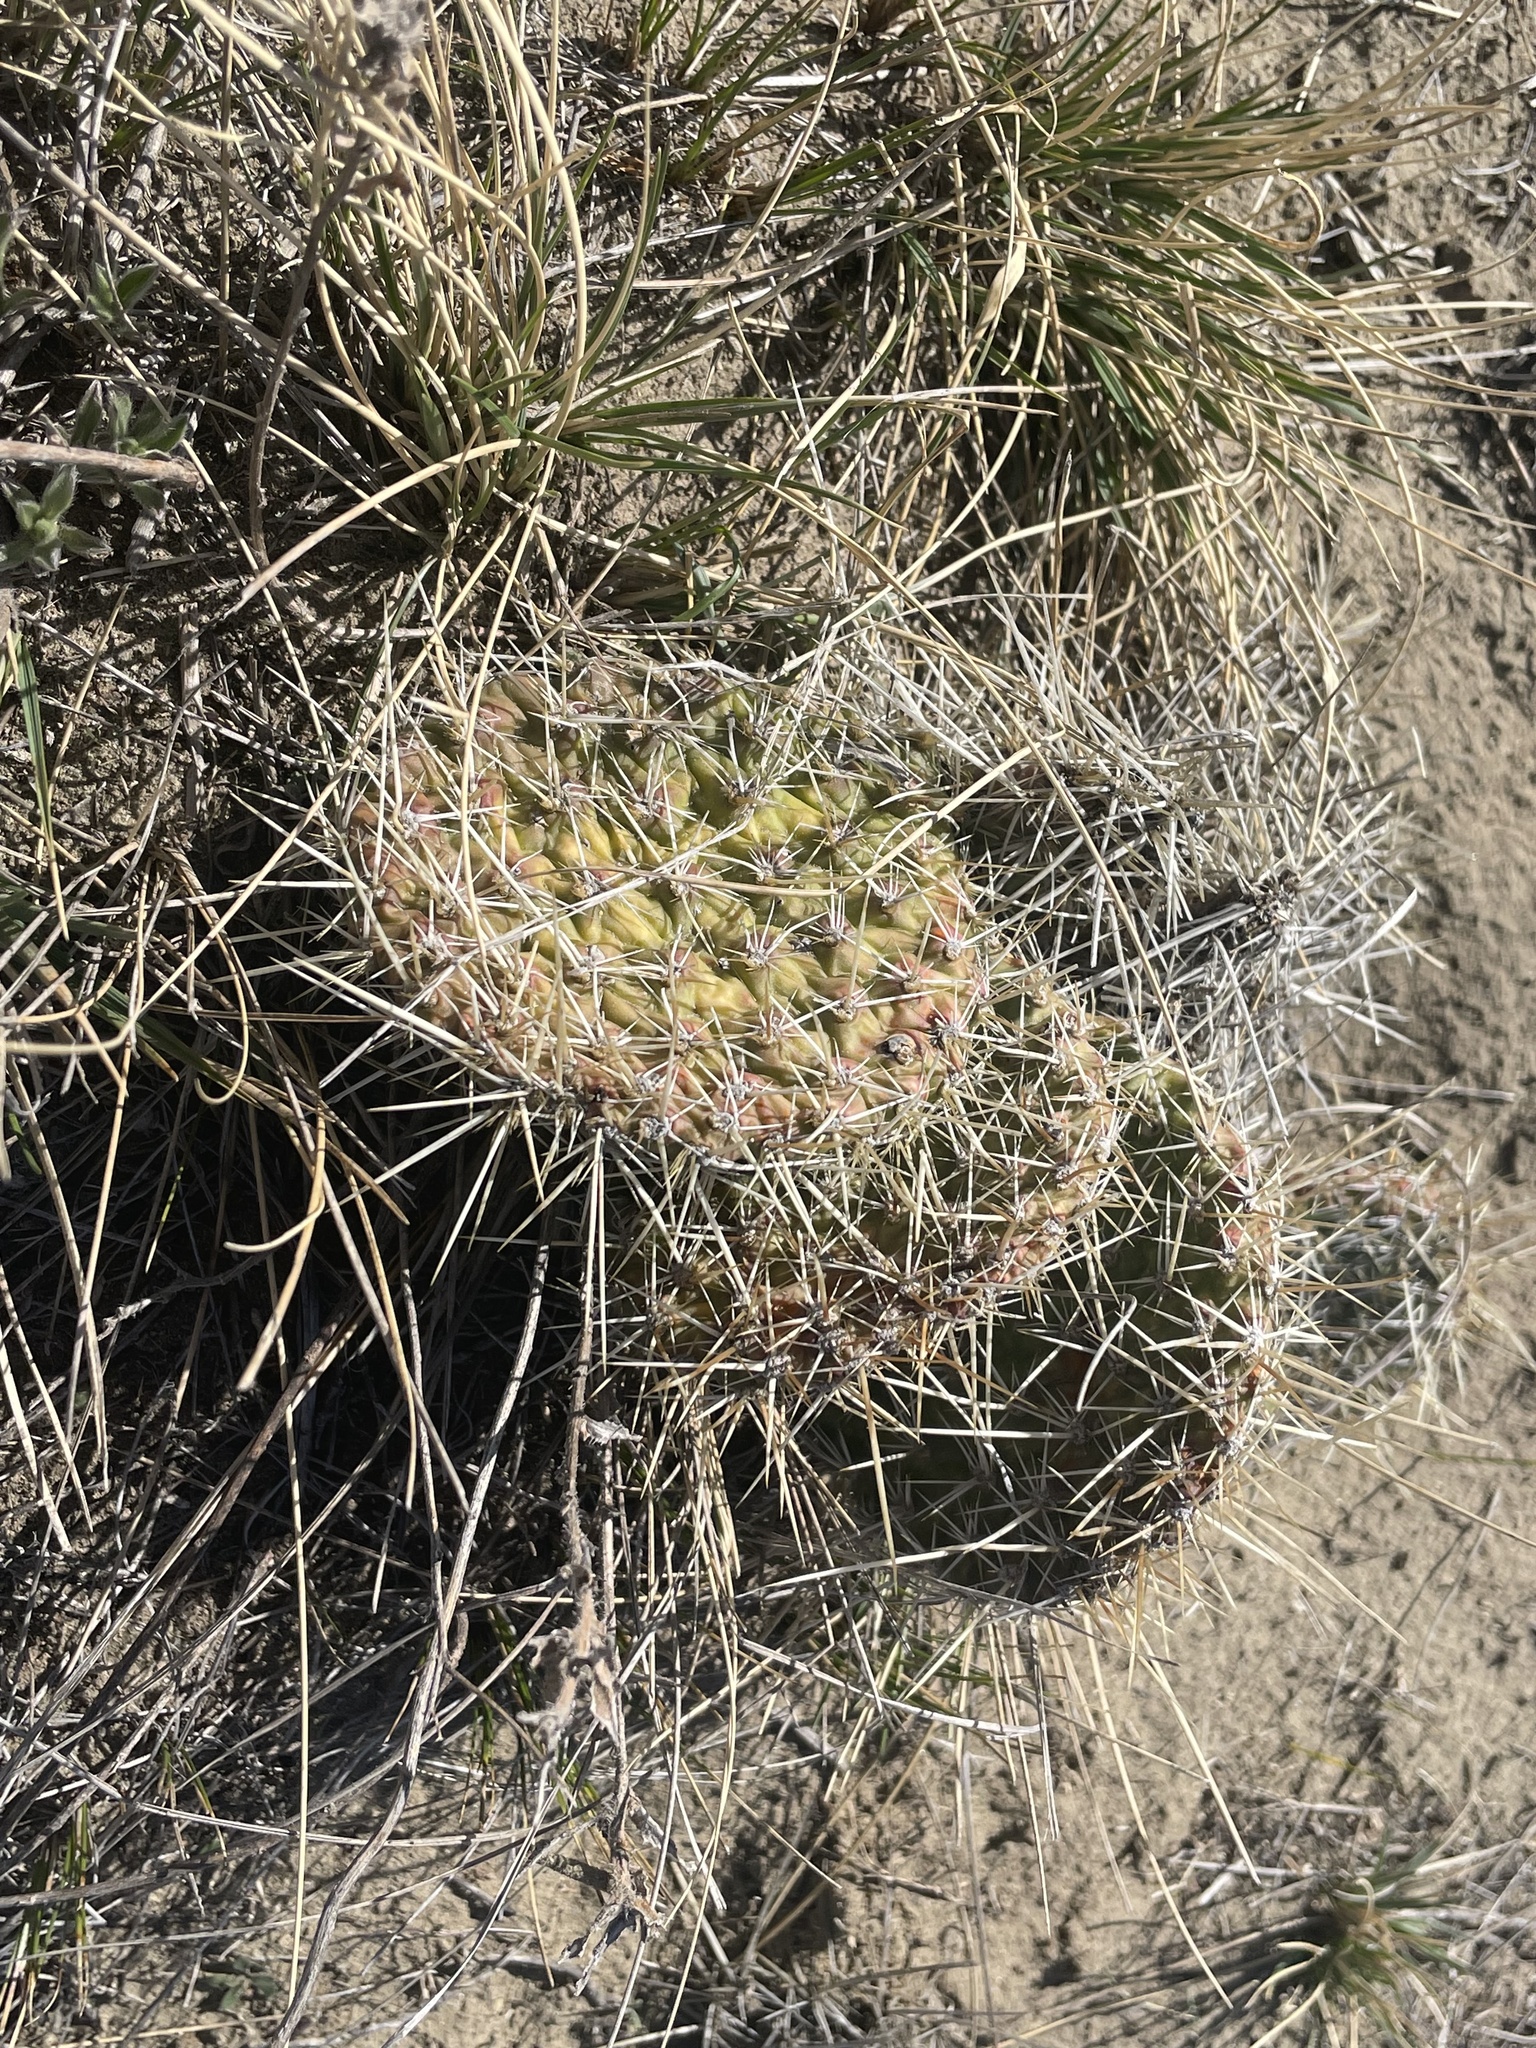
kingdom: Plantae
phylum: Tracheophyta
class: Magnoliopsida
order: Caryophyllales
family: Cactaceae
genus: Opuntia
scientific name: Opuntia polyacantha
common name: Plains prickly-pear
